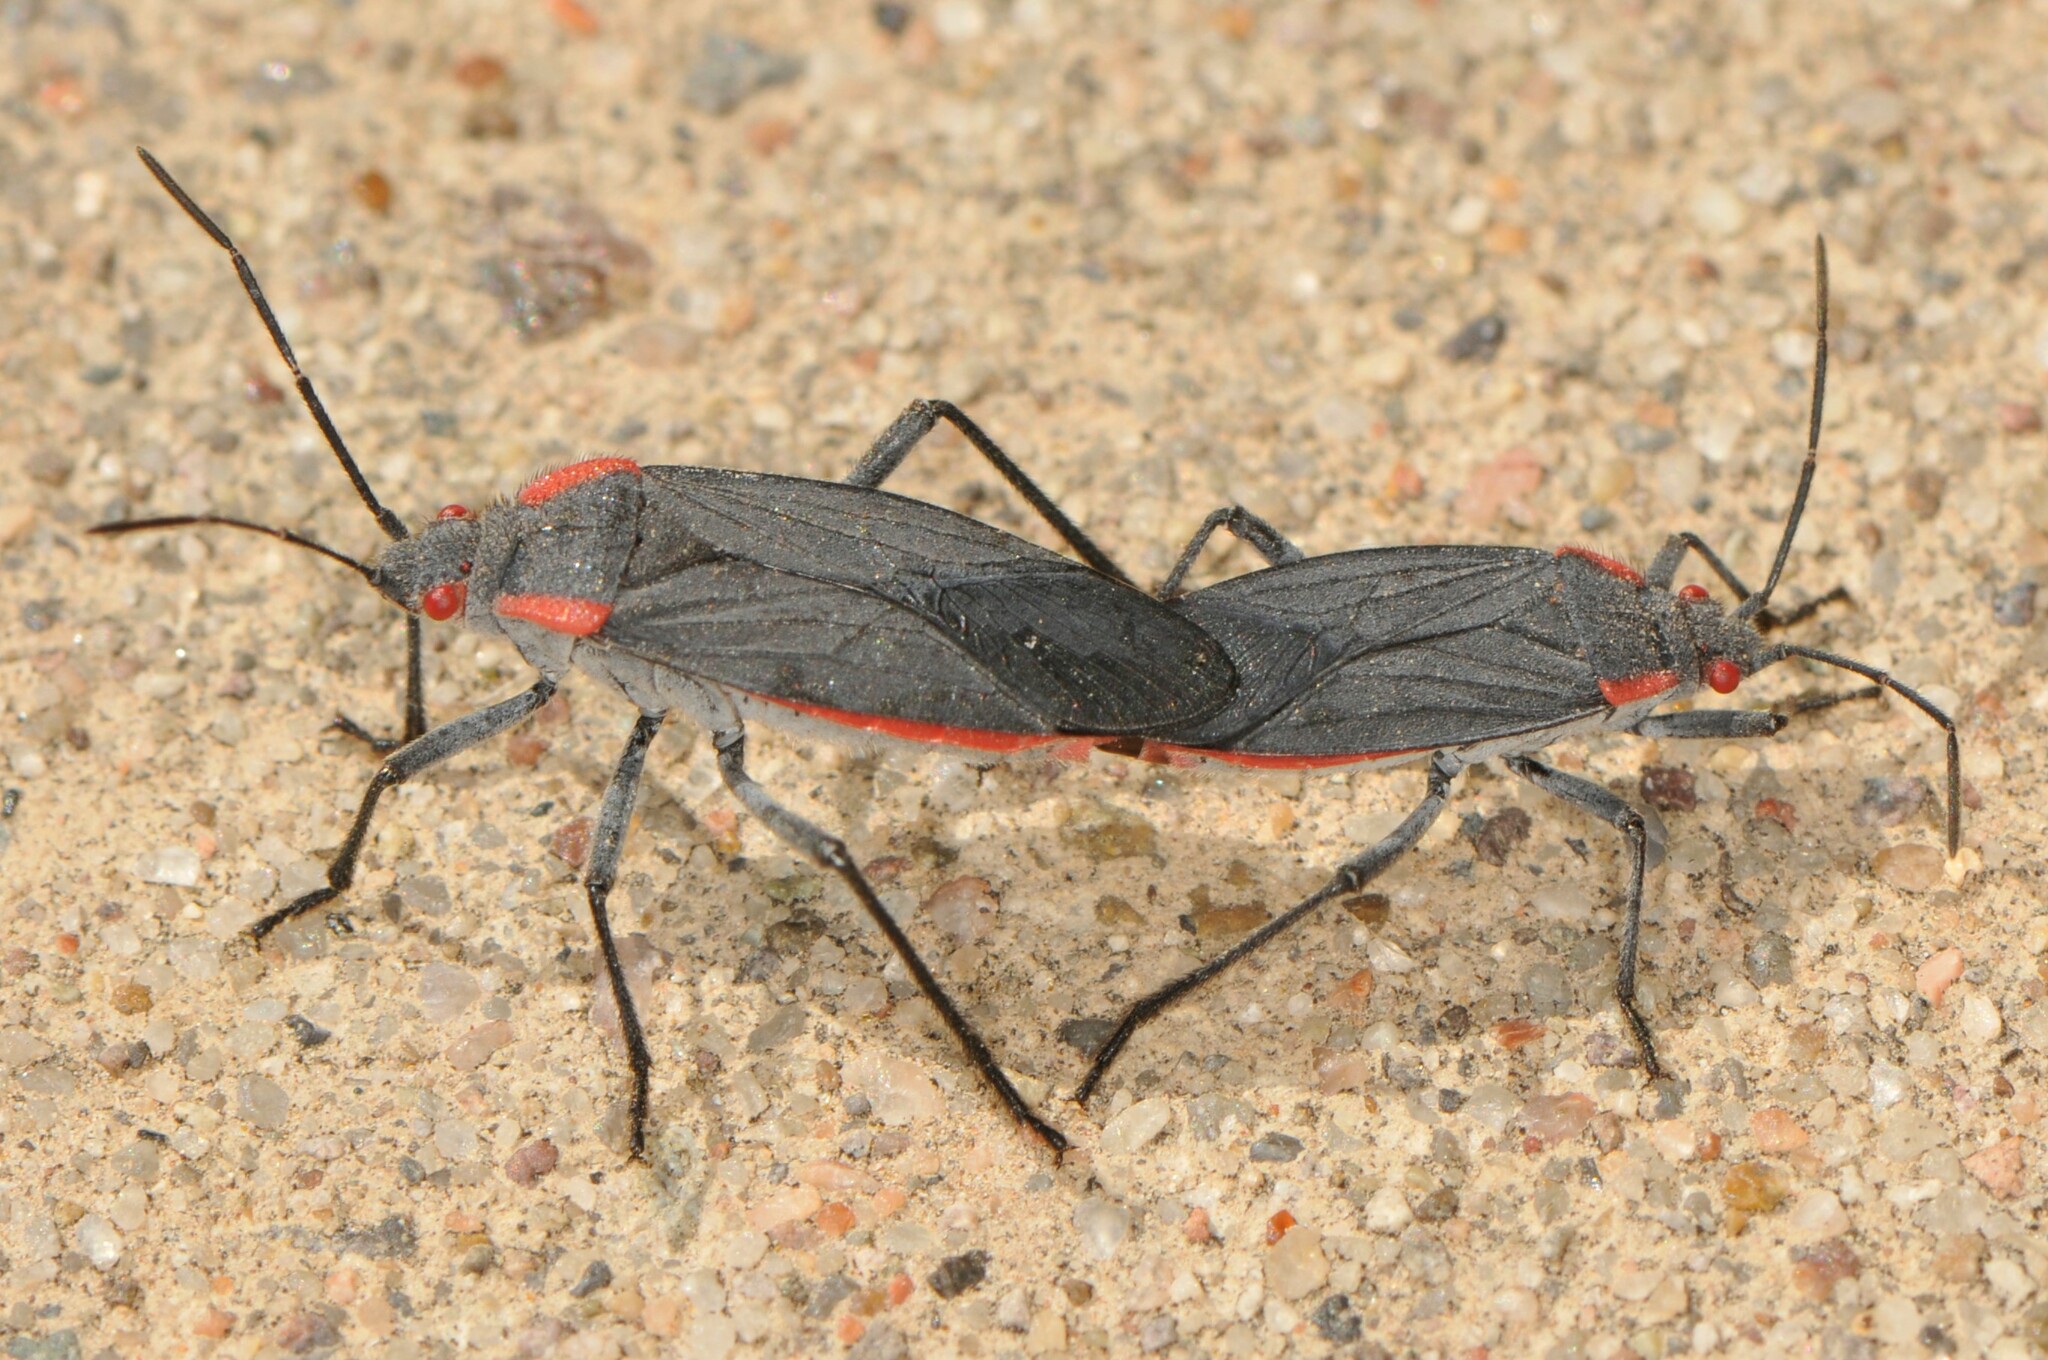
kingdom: Animalia
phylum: Arthropoda
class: Insecta
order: Hemiptera
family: Rhopalidae
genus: Jadera
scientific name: Jadera haematoloma
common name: Red-shouldered bug
